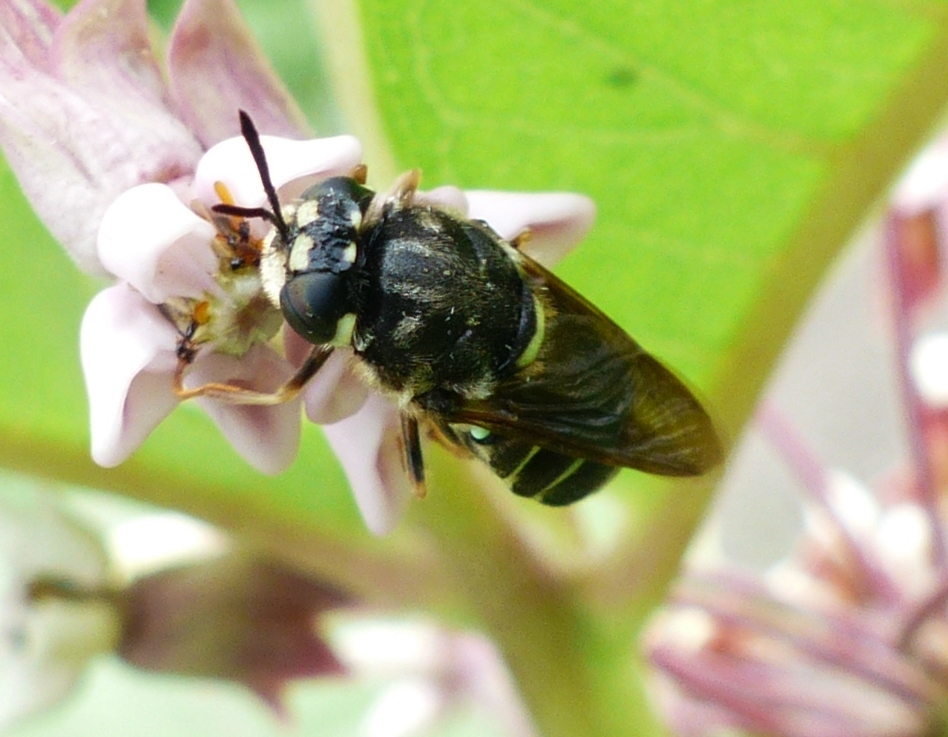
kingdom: Animalia
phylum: Arthropoda
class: Insecta
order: Diptera
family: Stratiomyidae
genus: Stratiomys
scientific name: Stratiomys badia
